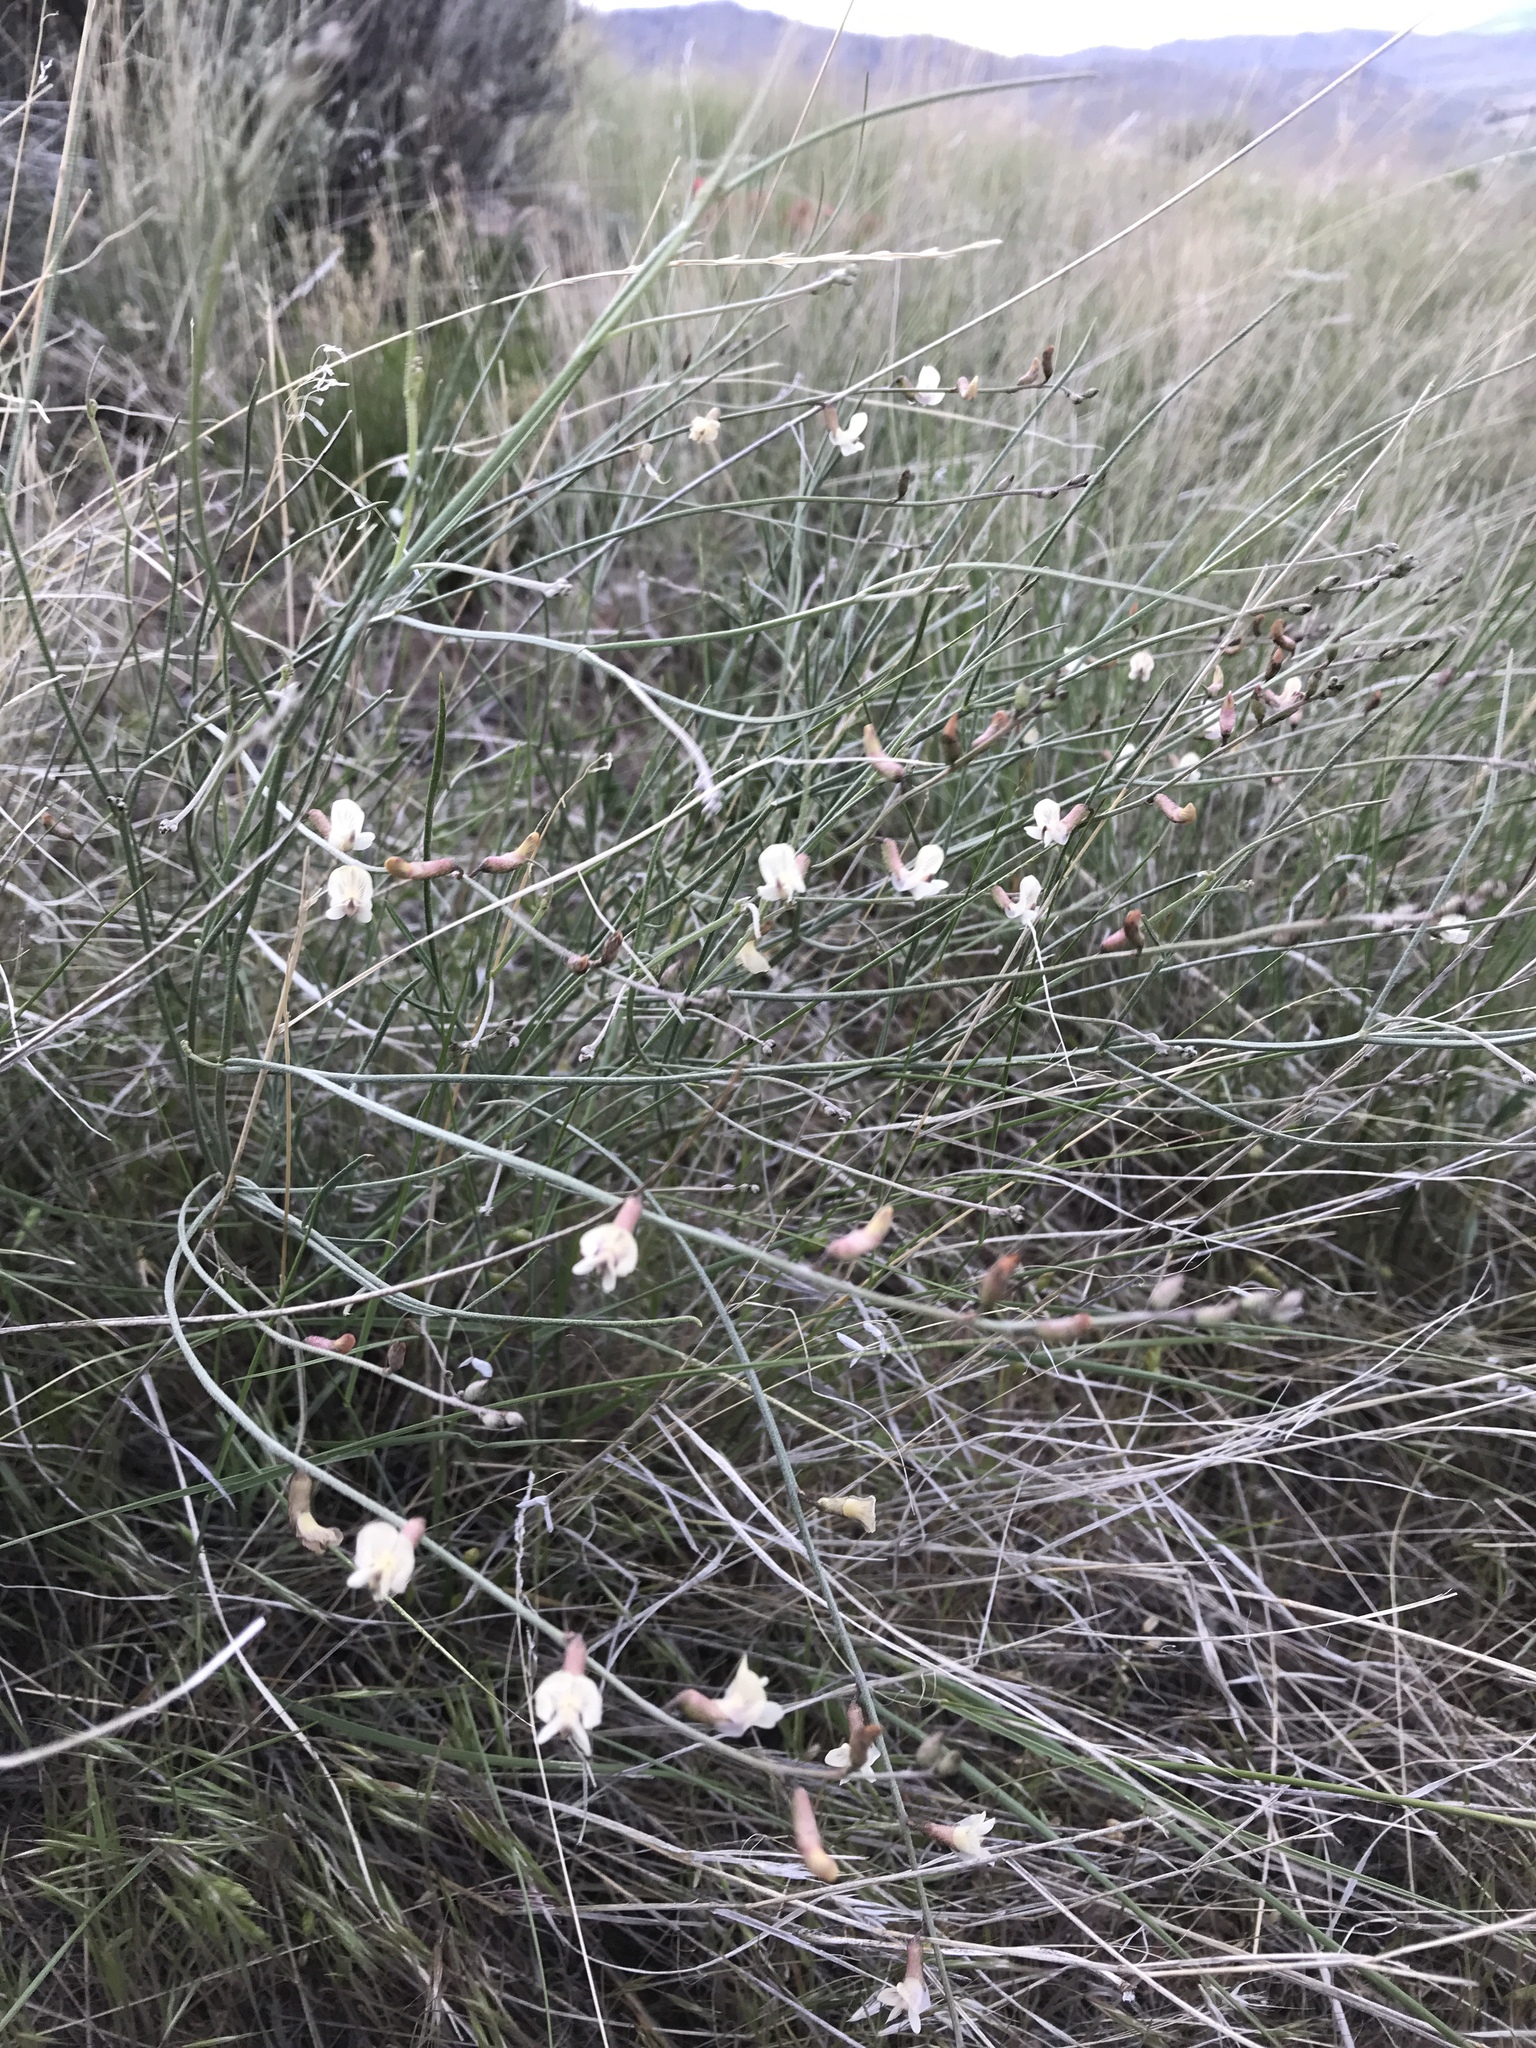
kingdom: Plantae
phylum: Tracheophyta
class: Magnoliopsida
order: Fabales
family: Fabaceae
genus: Astragalus
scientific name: Astragalus convallarius
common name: Lesser rushy milk-vetch
